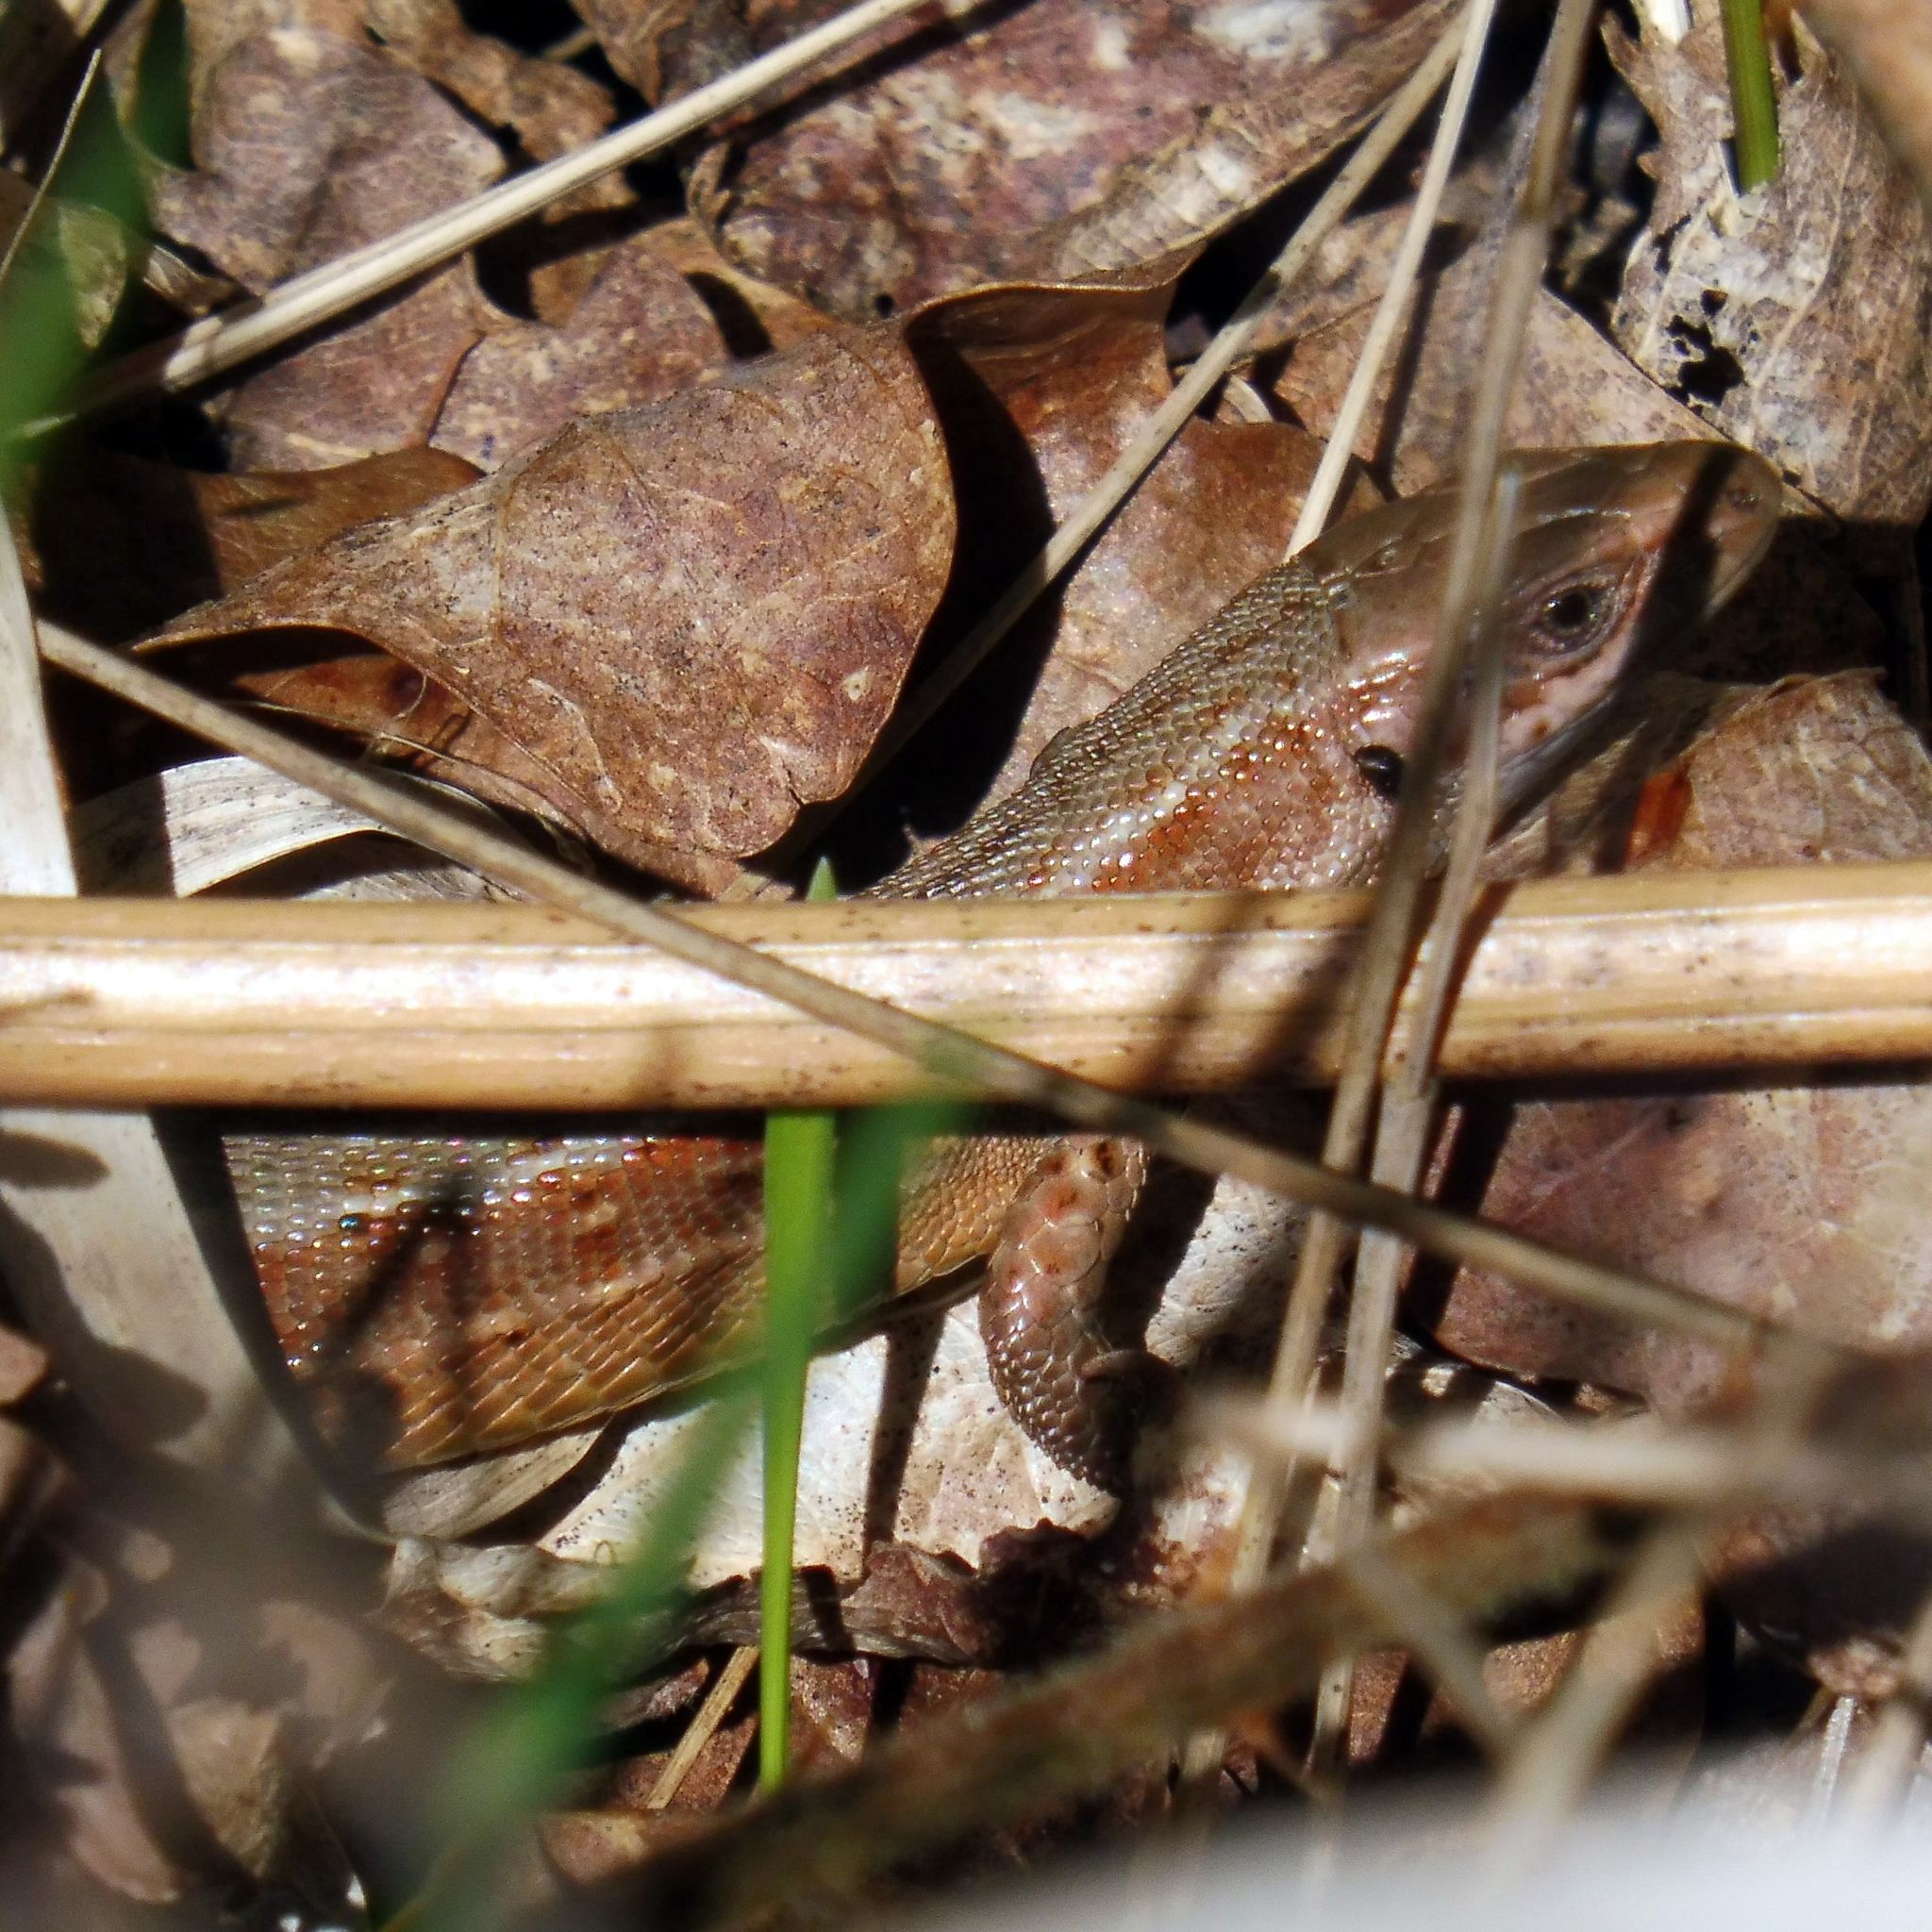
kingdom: Animalia
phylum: Chordata
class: Squamata
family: Lacertidae
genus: Zootoca
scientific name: Zootoca vivipara
